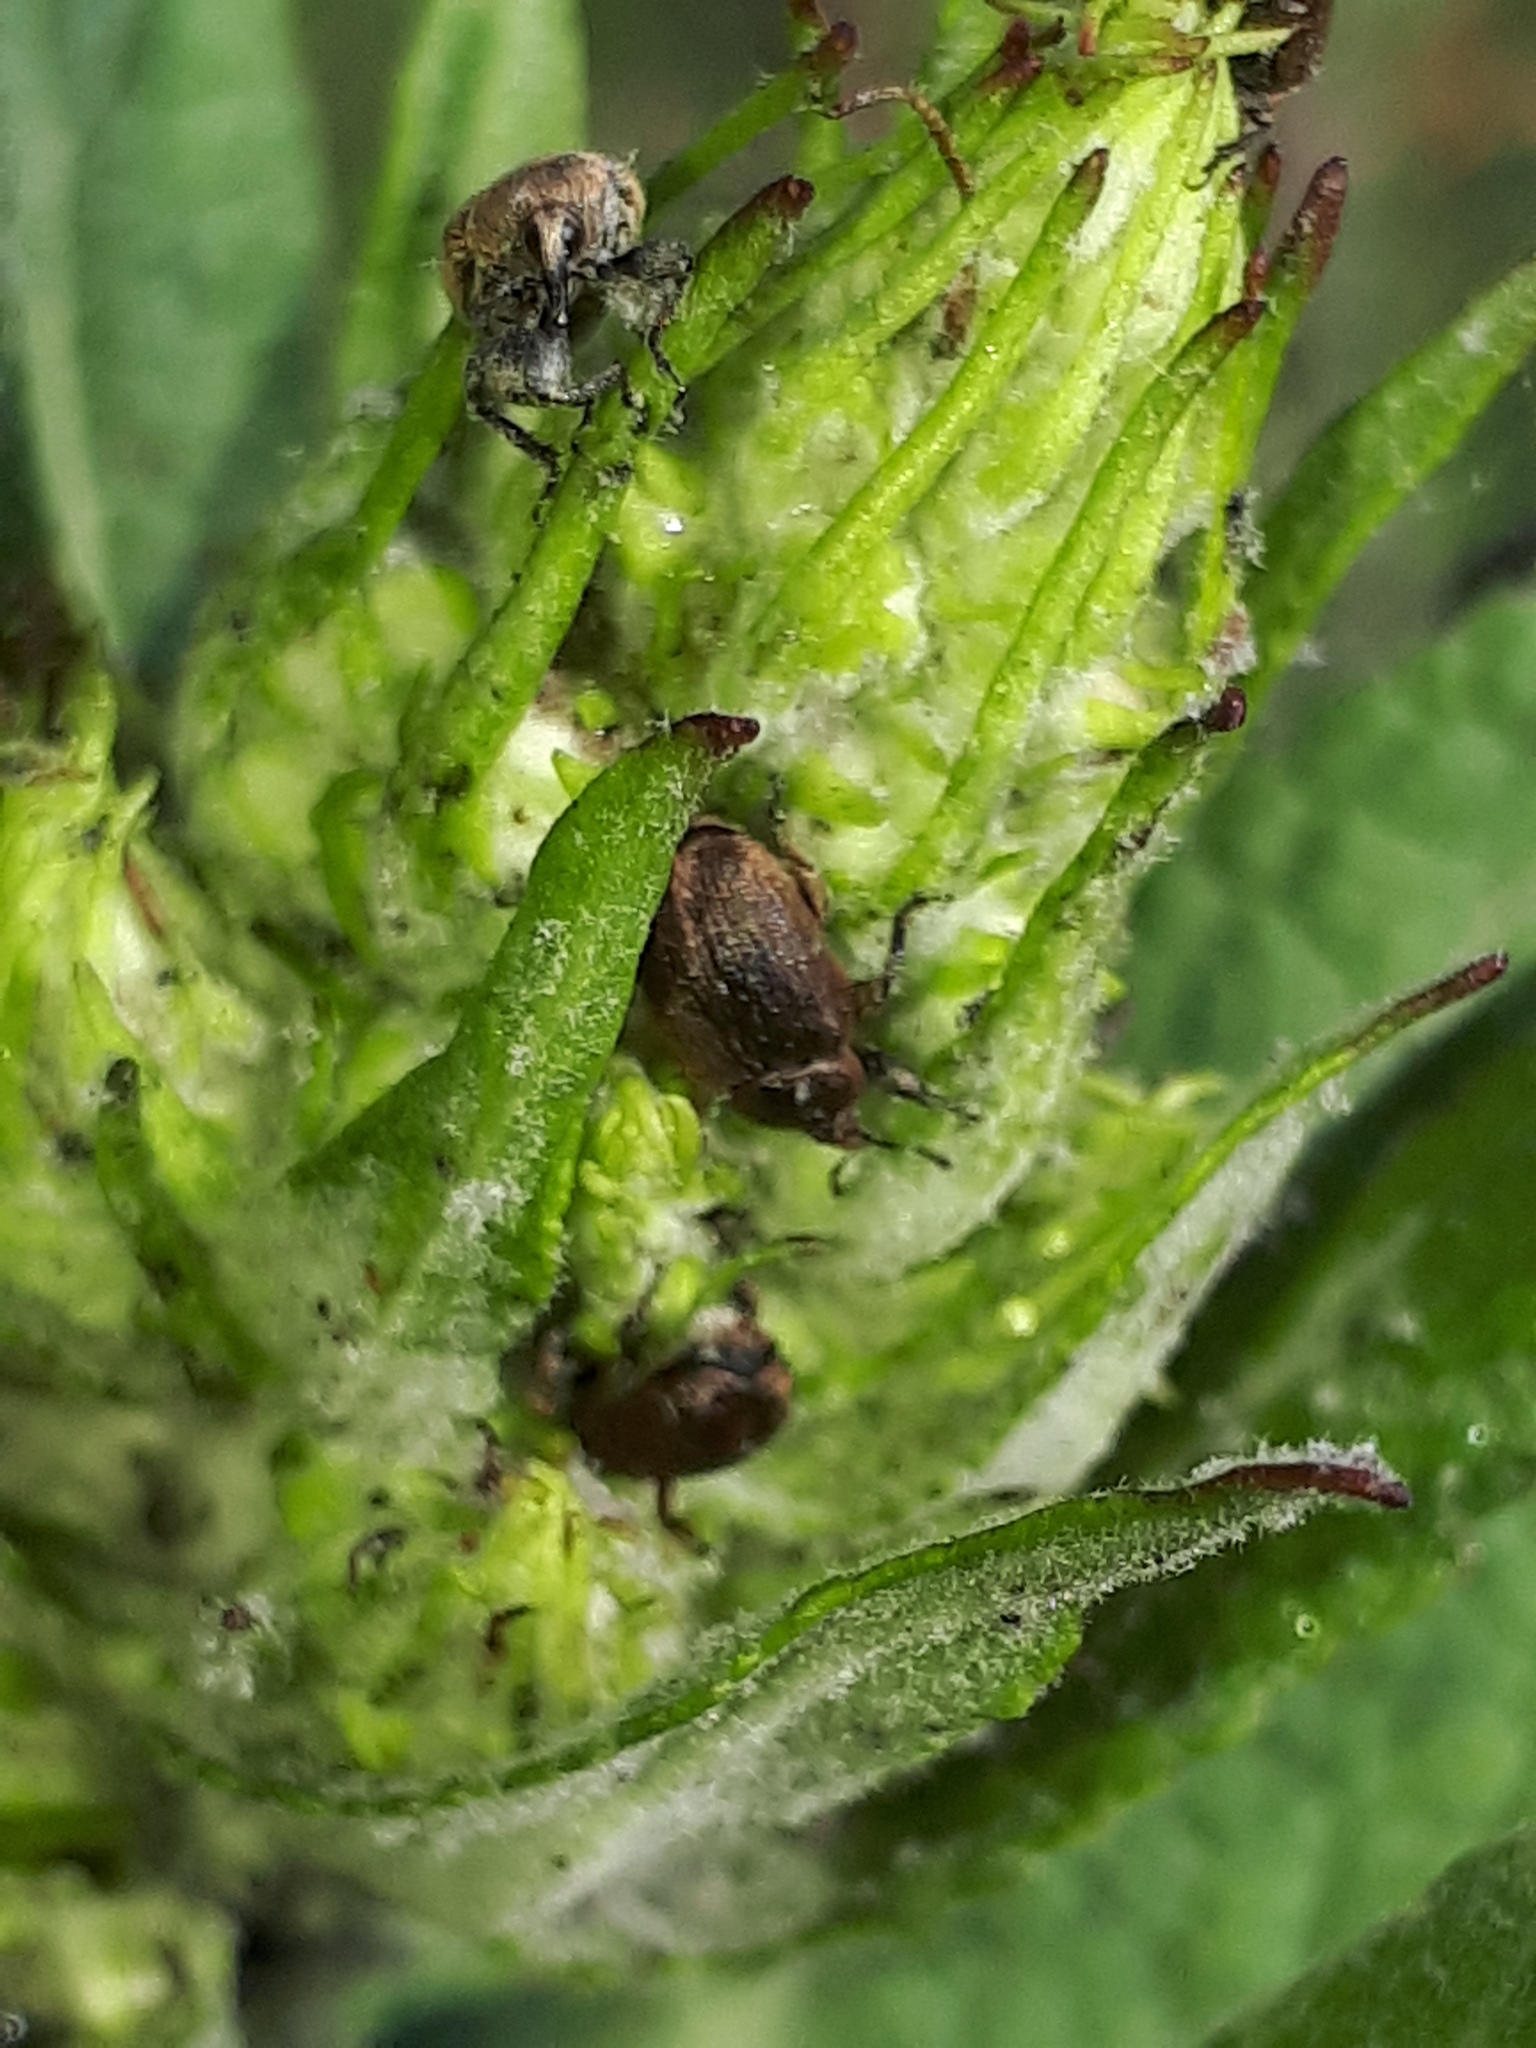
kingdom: Animalia
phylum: Arthropoda
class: Insecta
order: Coleoptera
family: Curculionidae
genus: Rhinusa
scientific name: Rhinusa tetra
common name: Weevil
